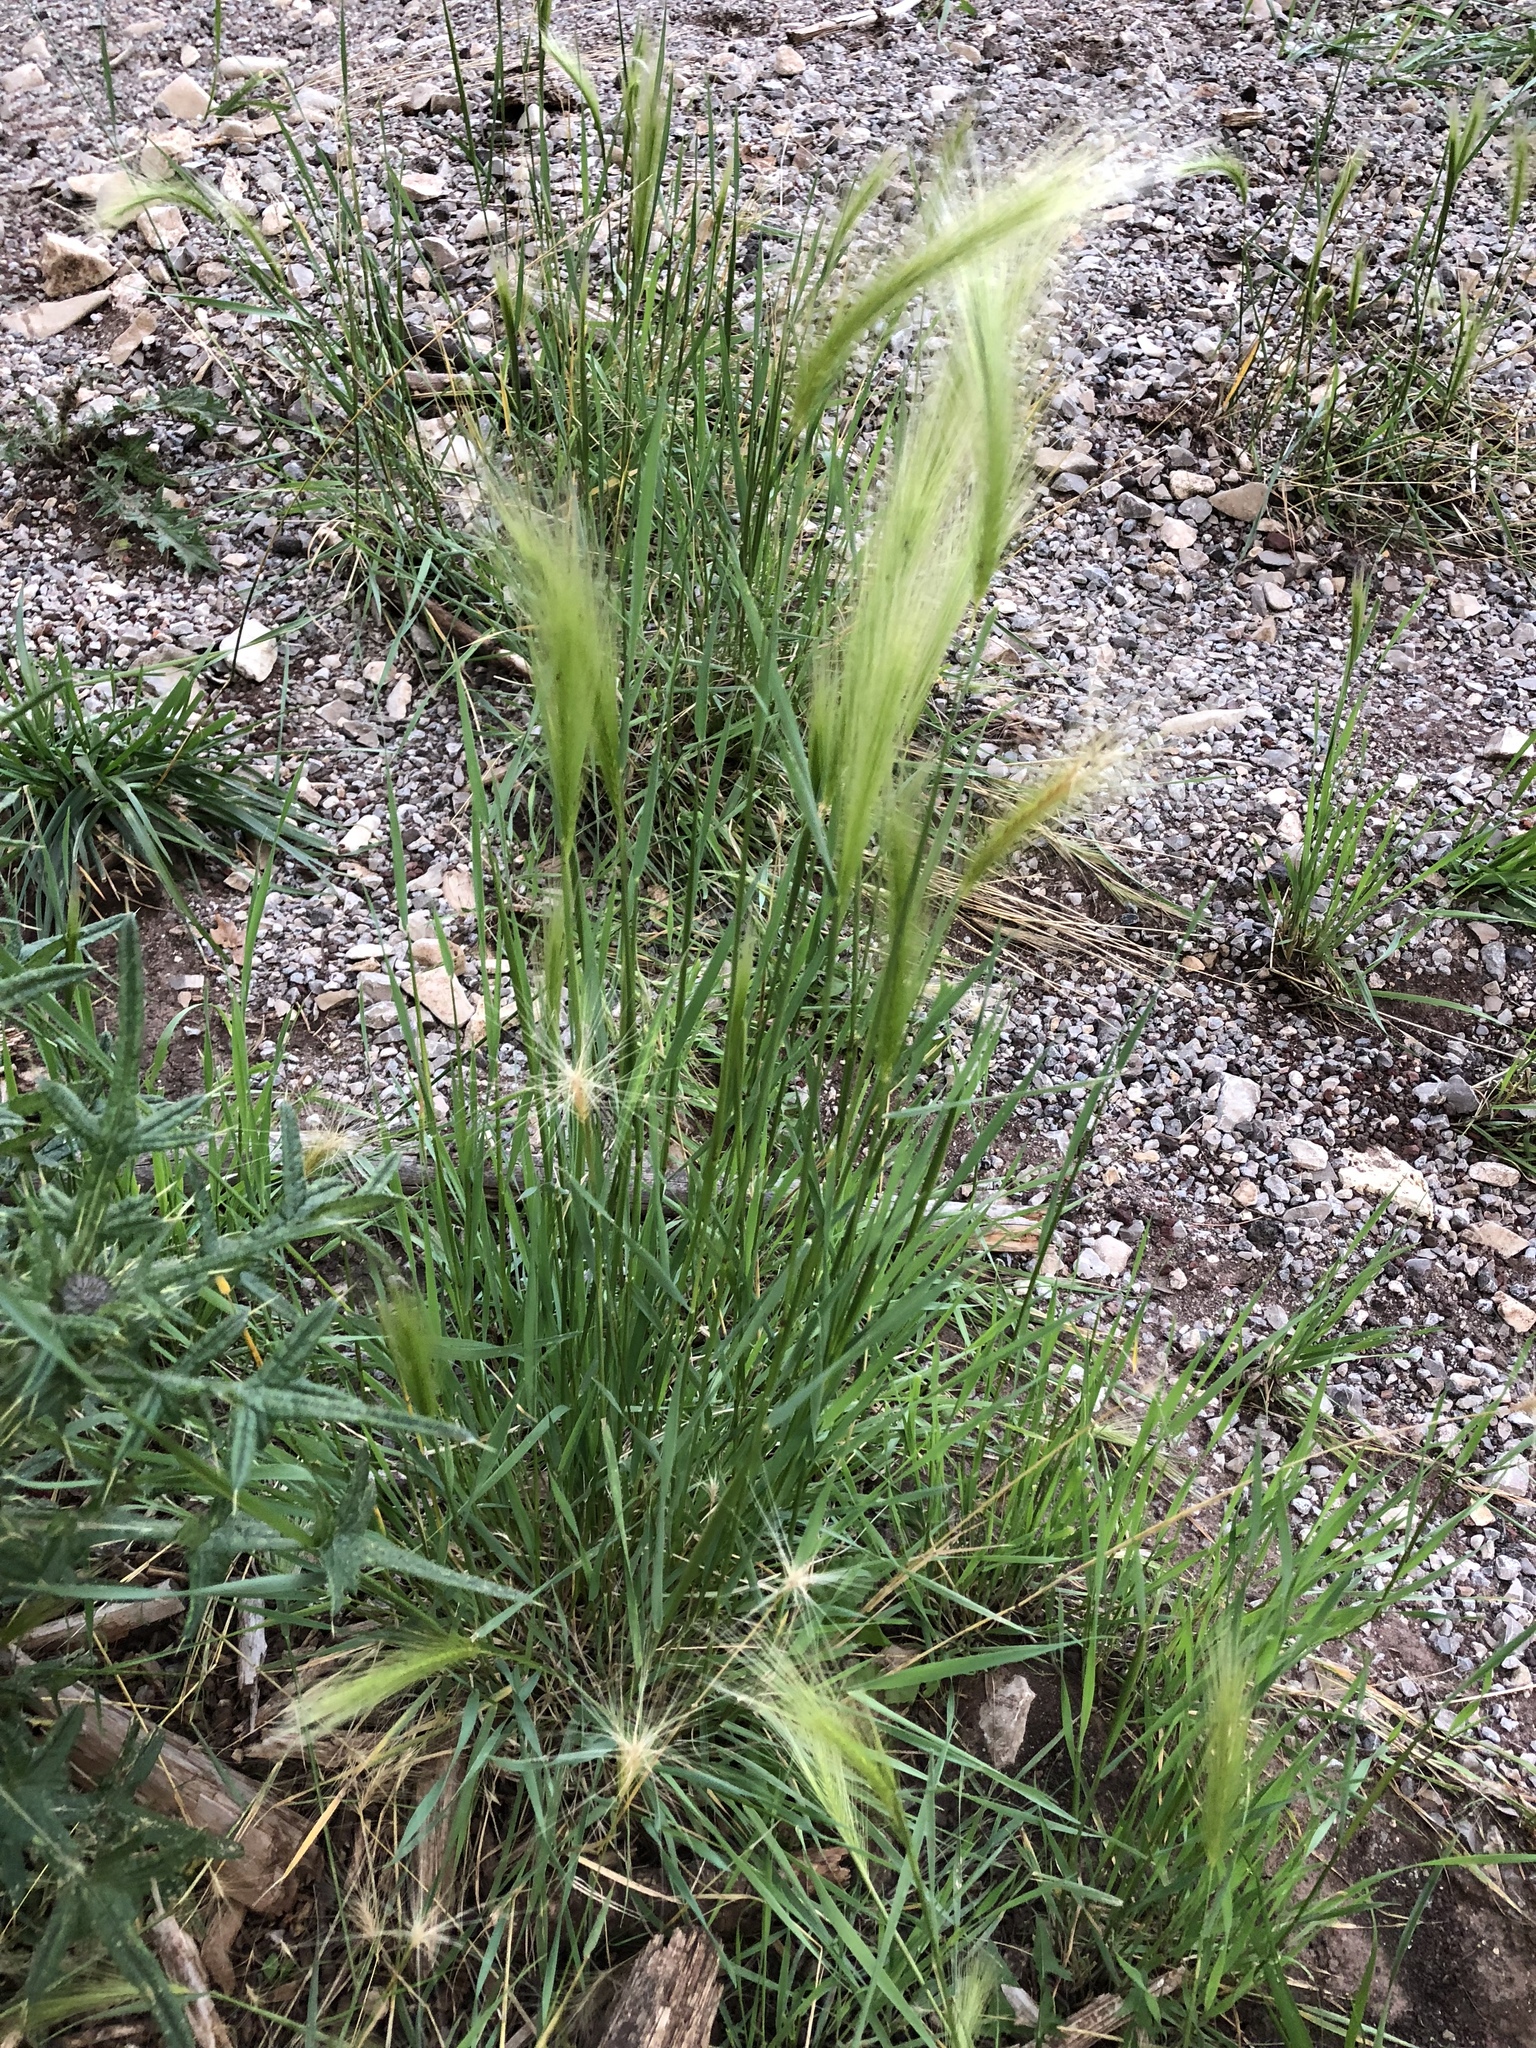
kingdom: Plantae
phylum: Tracheophyta
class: Liliopsida
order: Poales
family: Poaceae
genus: Hordeum
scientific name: Hordeum jubatum
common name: Foxtail barley
